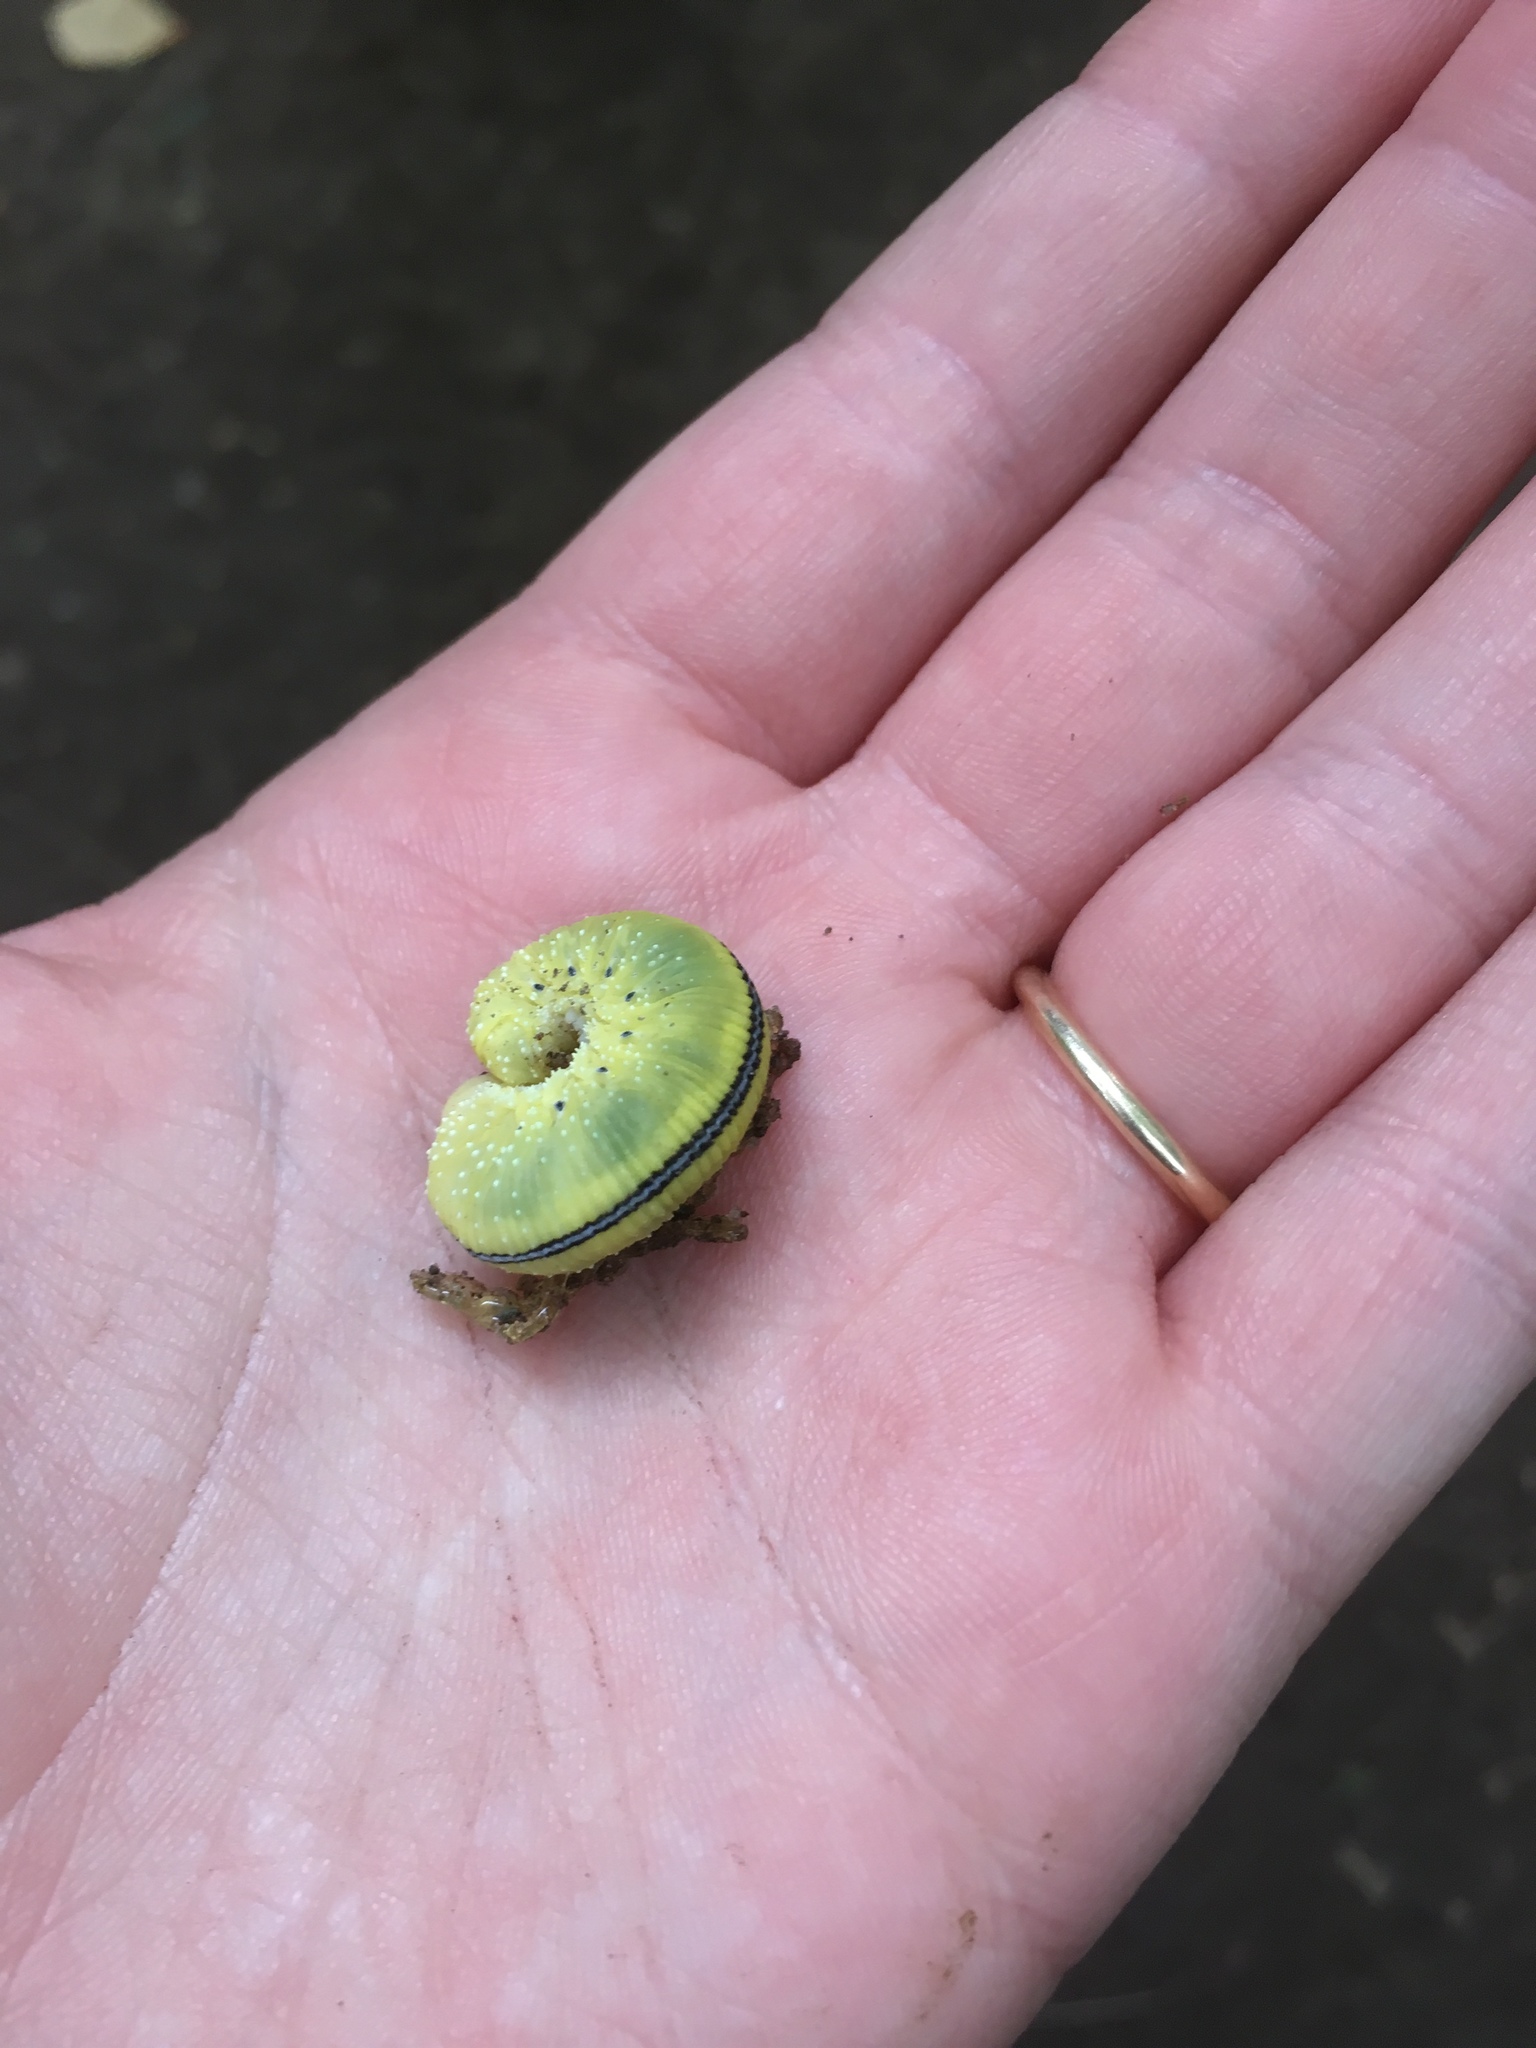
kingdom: Animalia
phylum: Arthropoda
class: Insecta
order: Hymenoptera
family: Cimbicidae
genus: Cimbex
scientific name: Cimbex americana
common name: Elm sawfly
